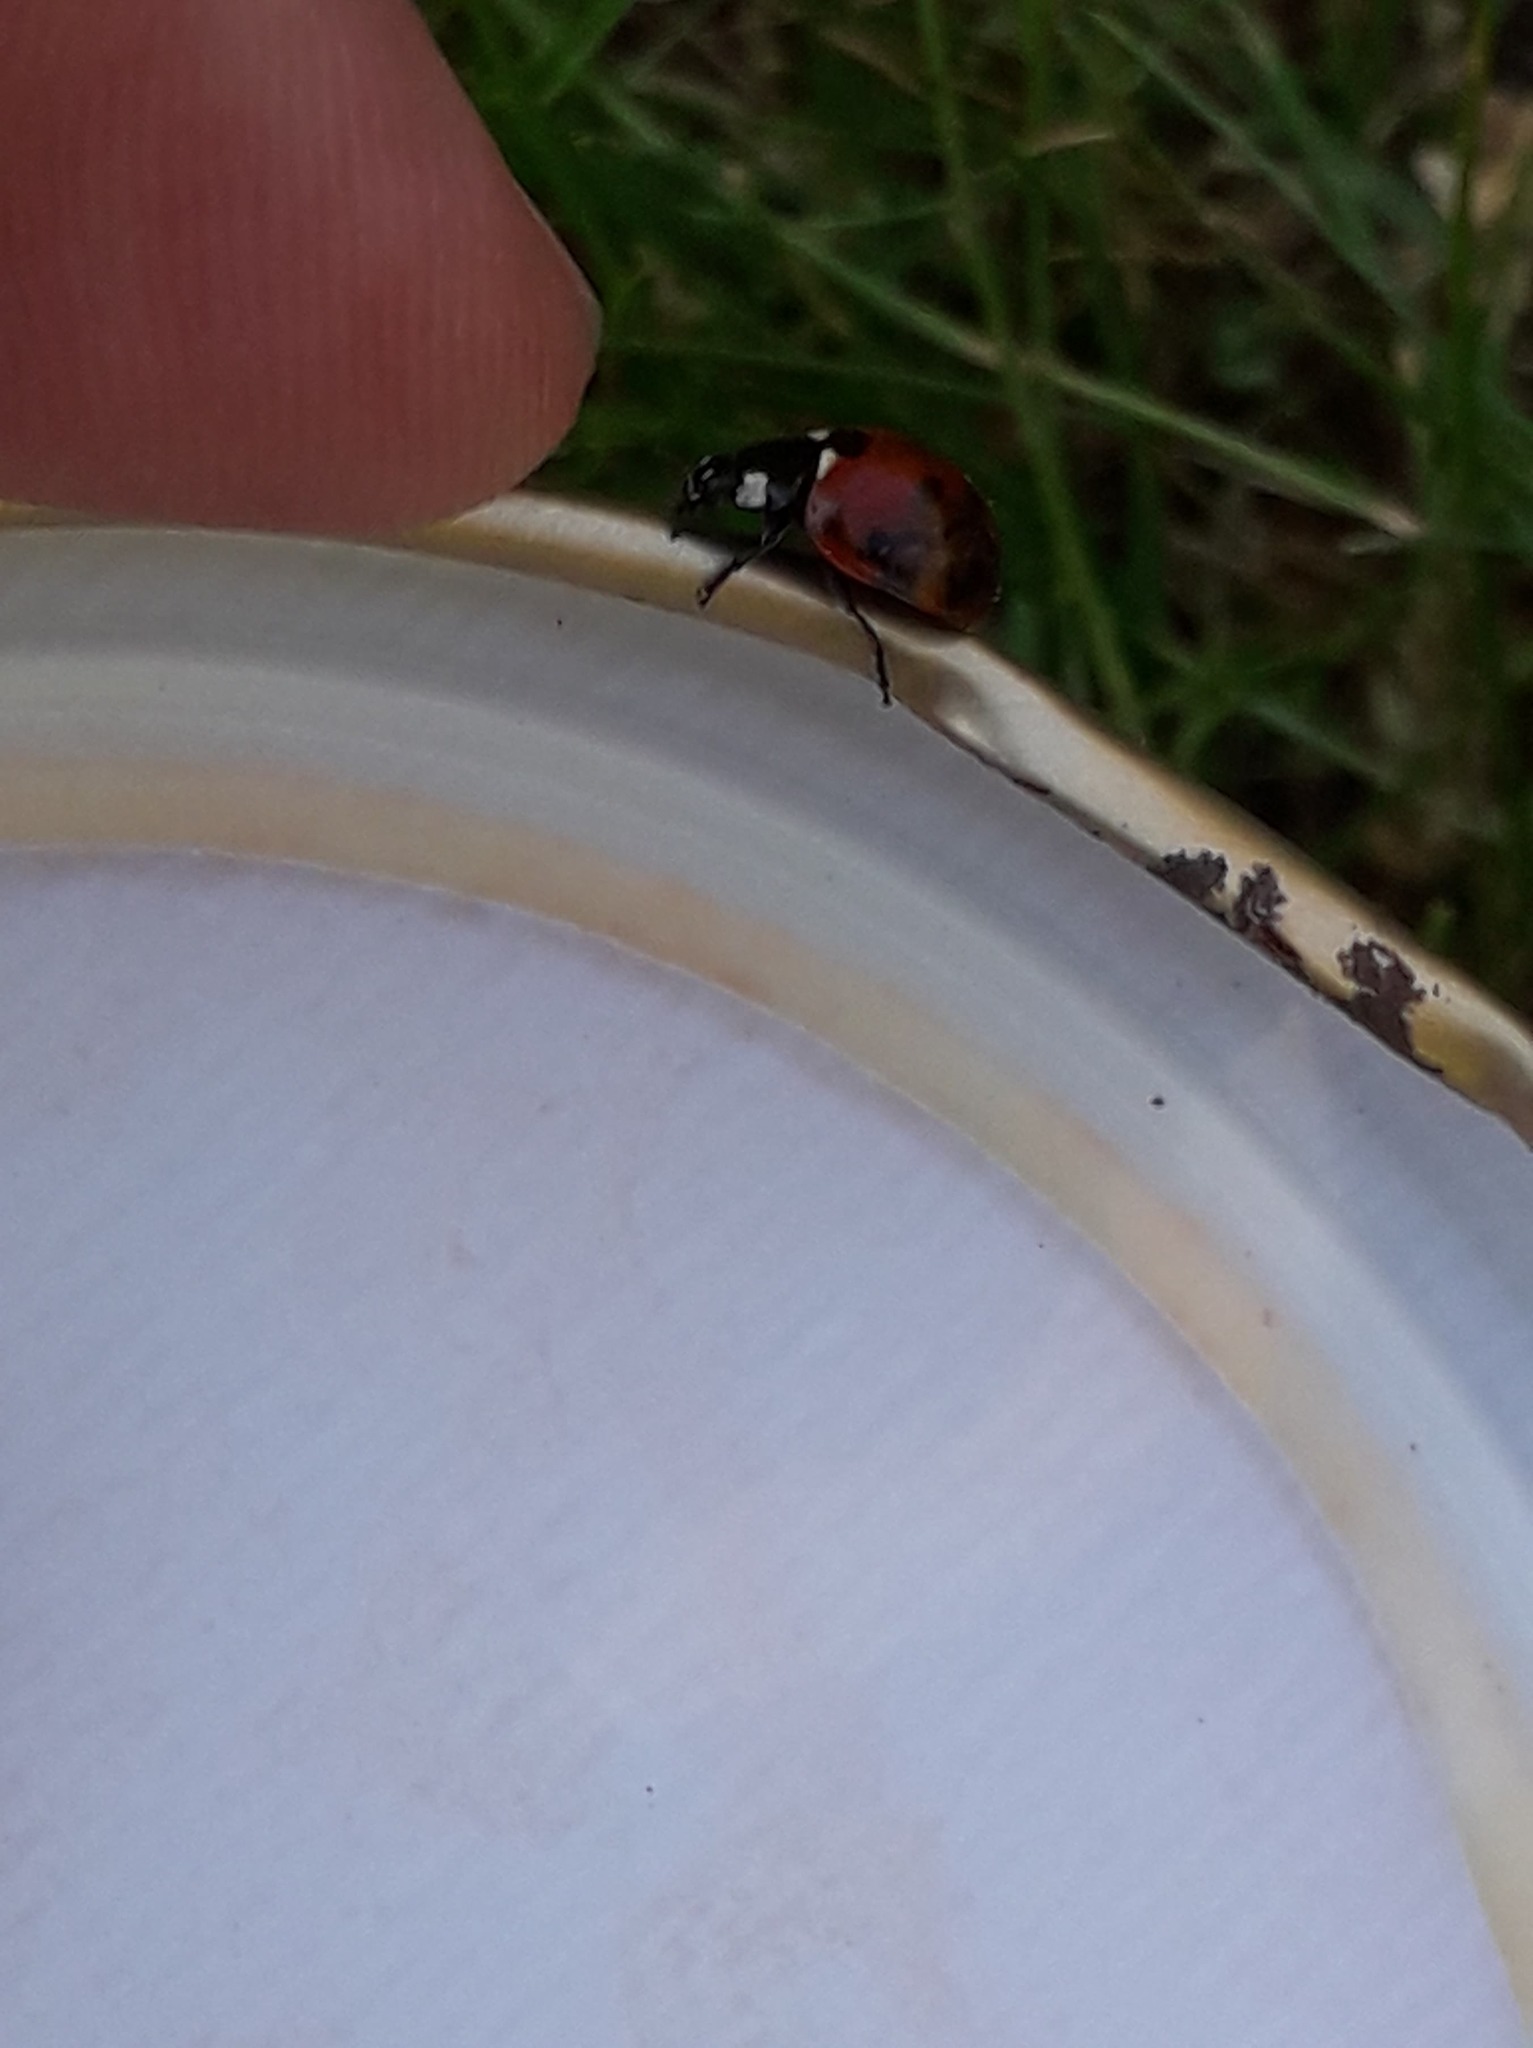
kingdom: Animalia
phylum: Arthropoda
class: Insecta
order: Coleoptera
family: Coccinellidae
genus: Coccinella
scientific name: Coccinella septempunctata
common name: Sevenspotted lady beetle
